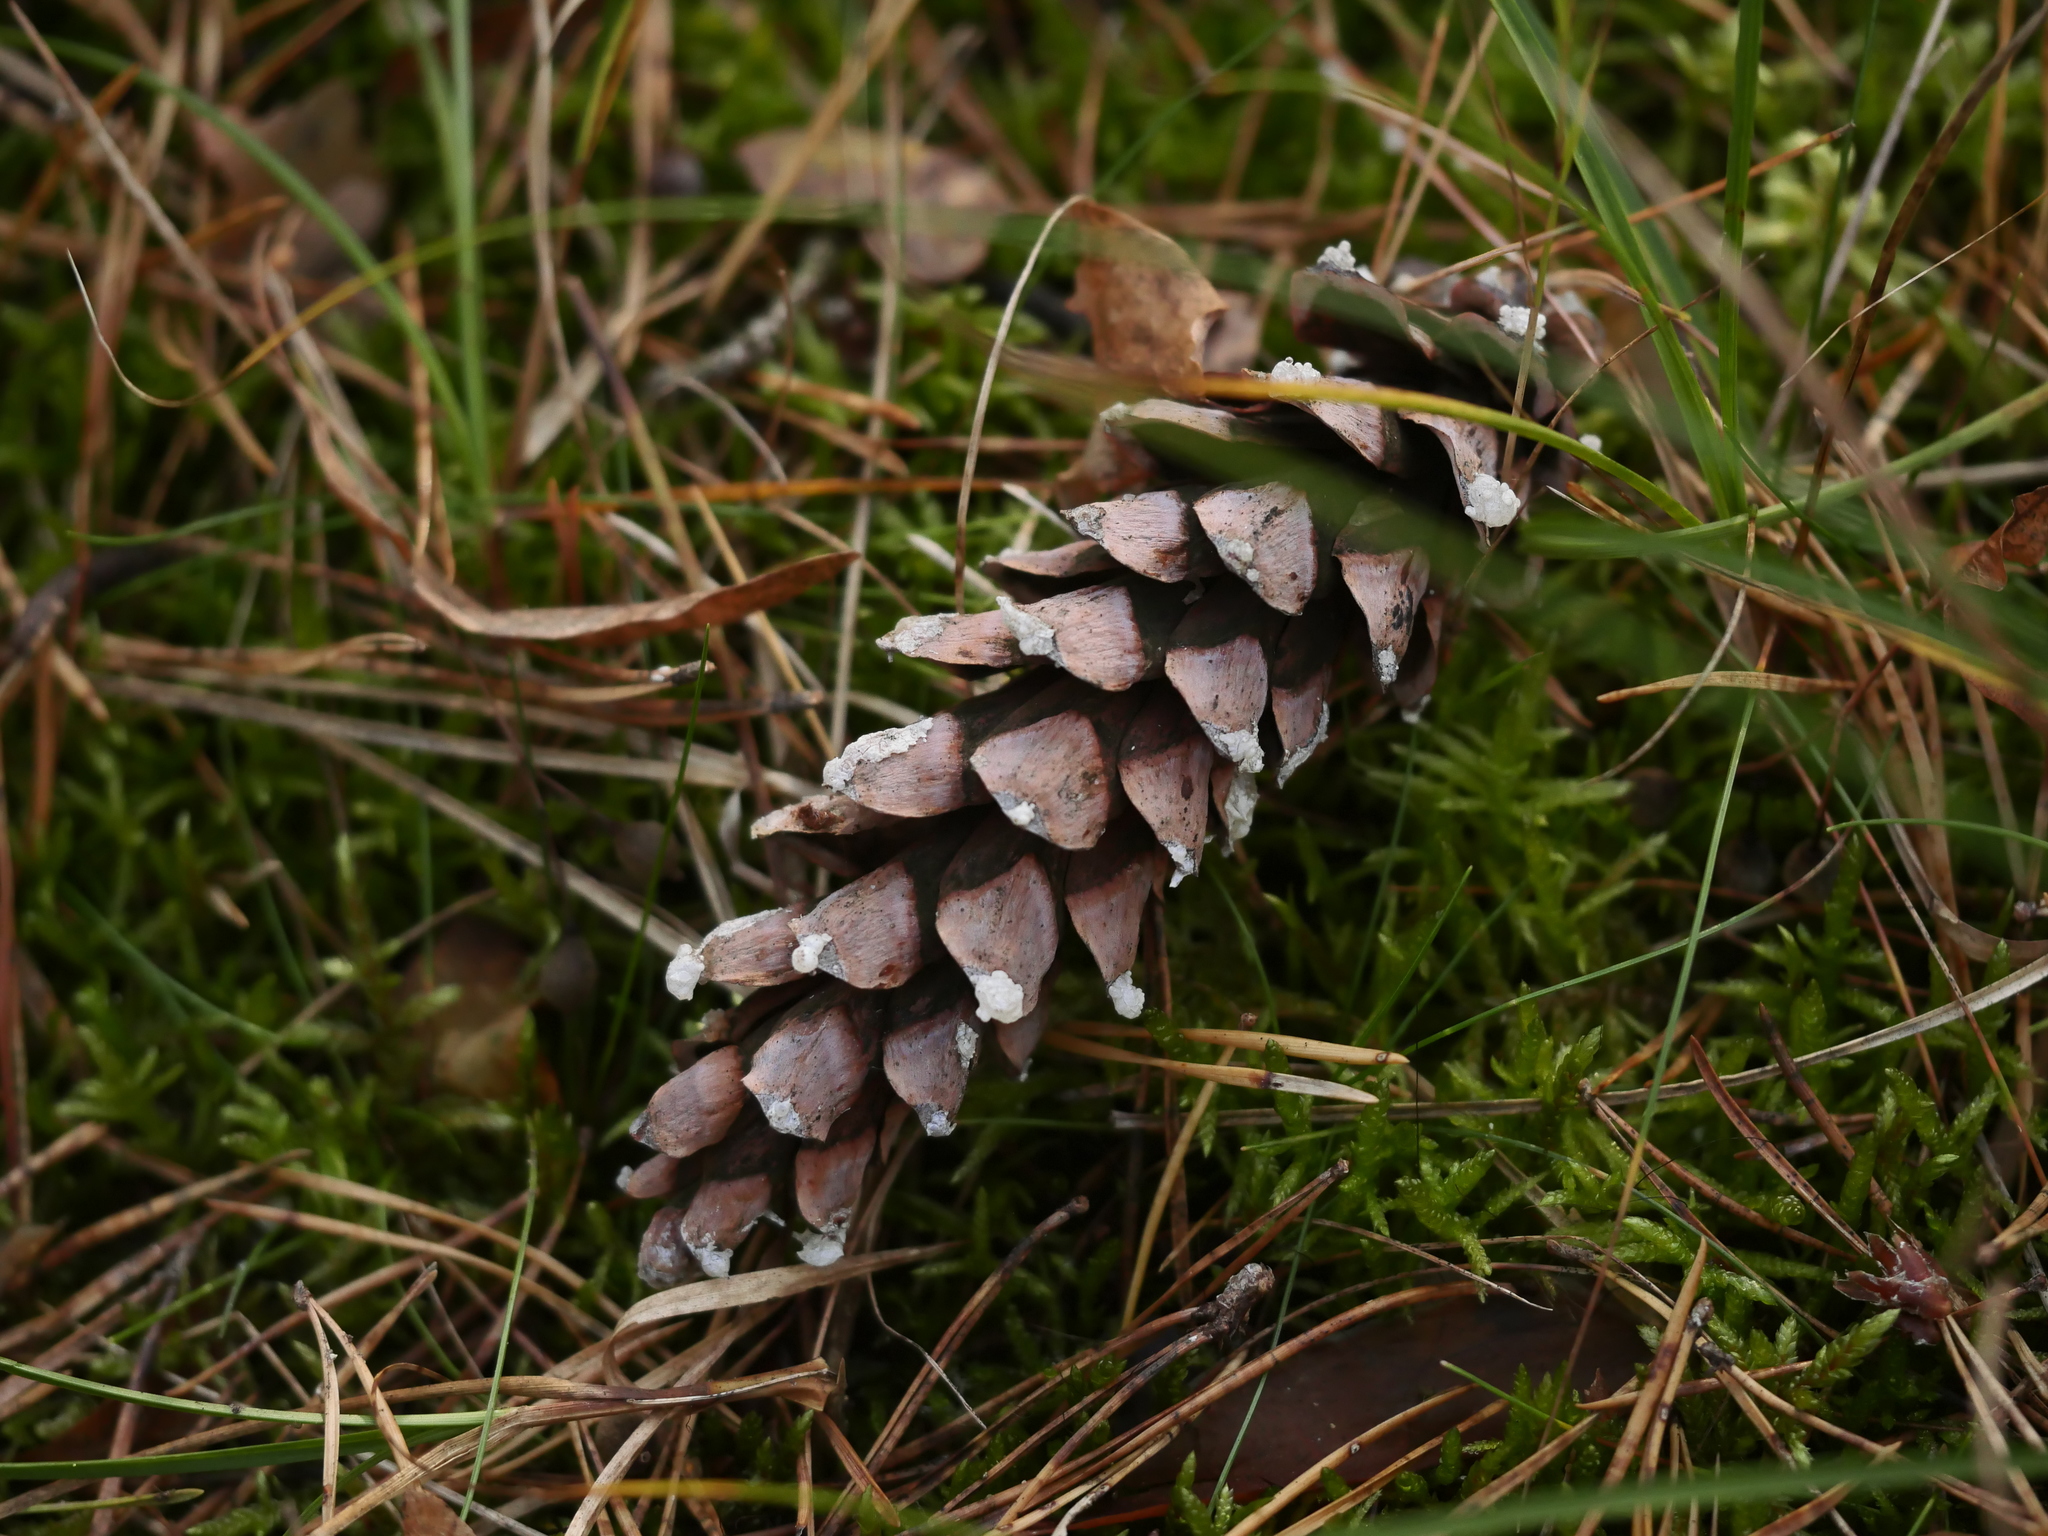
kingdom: Plantae
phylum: Tracheophyta
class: Pinopsida
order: Pinales
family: Pinaceae
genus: Pinus
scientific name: Pinus strobus
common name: Weymouth pine
